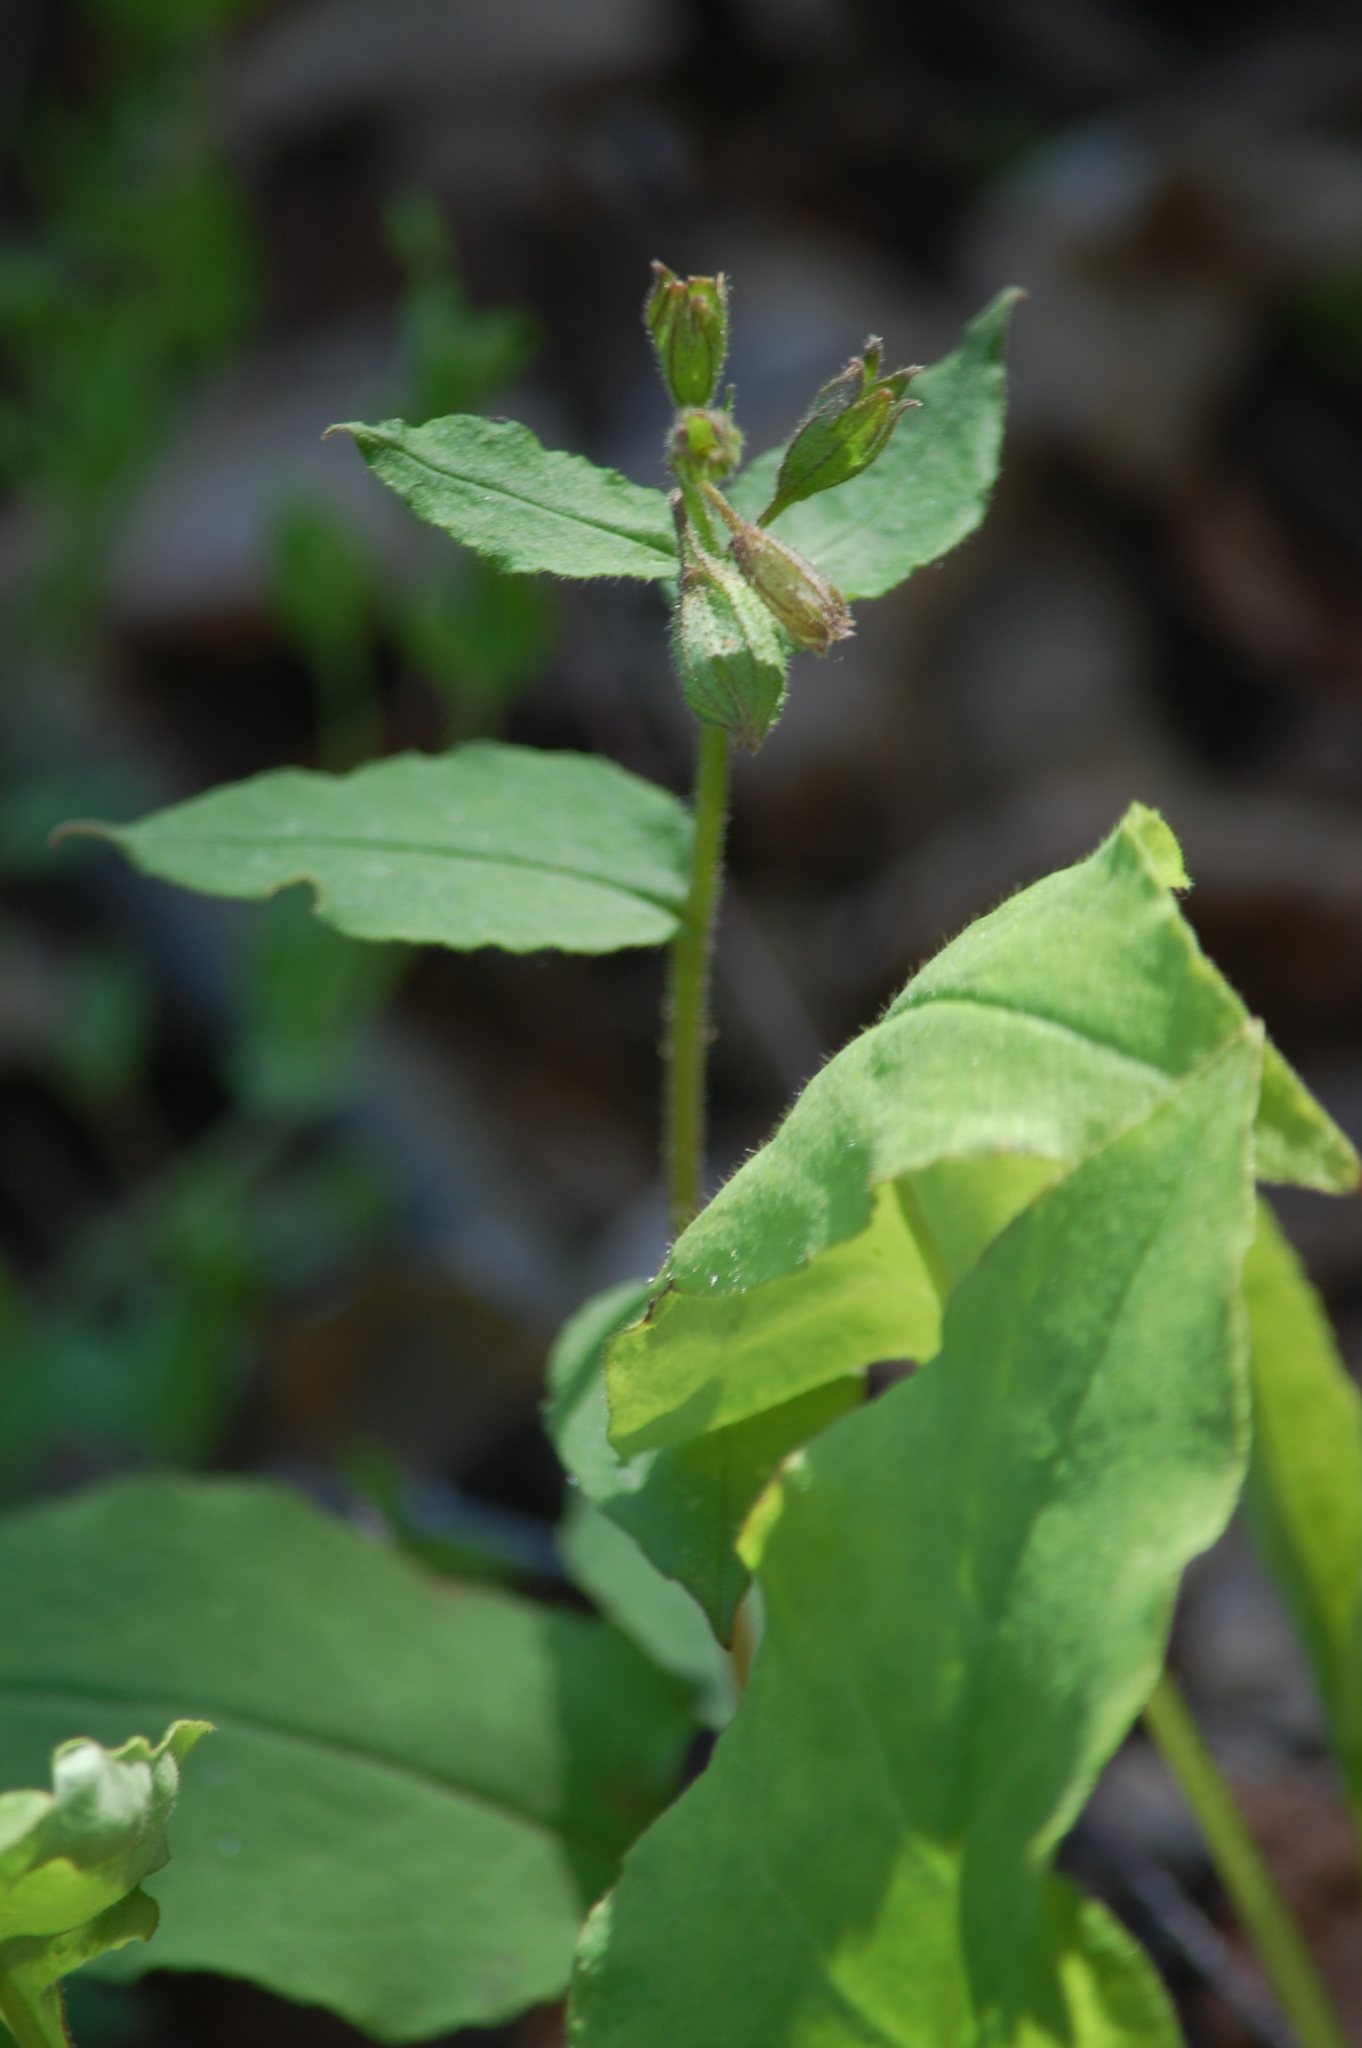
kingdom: Plantae
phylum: Tracheophyta
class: Magnoliopsida
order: Boraginales
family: Boraginaceae
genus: Pulmonaria
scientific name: Pulmonaria obscura
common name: Suffolk lungwort
